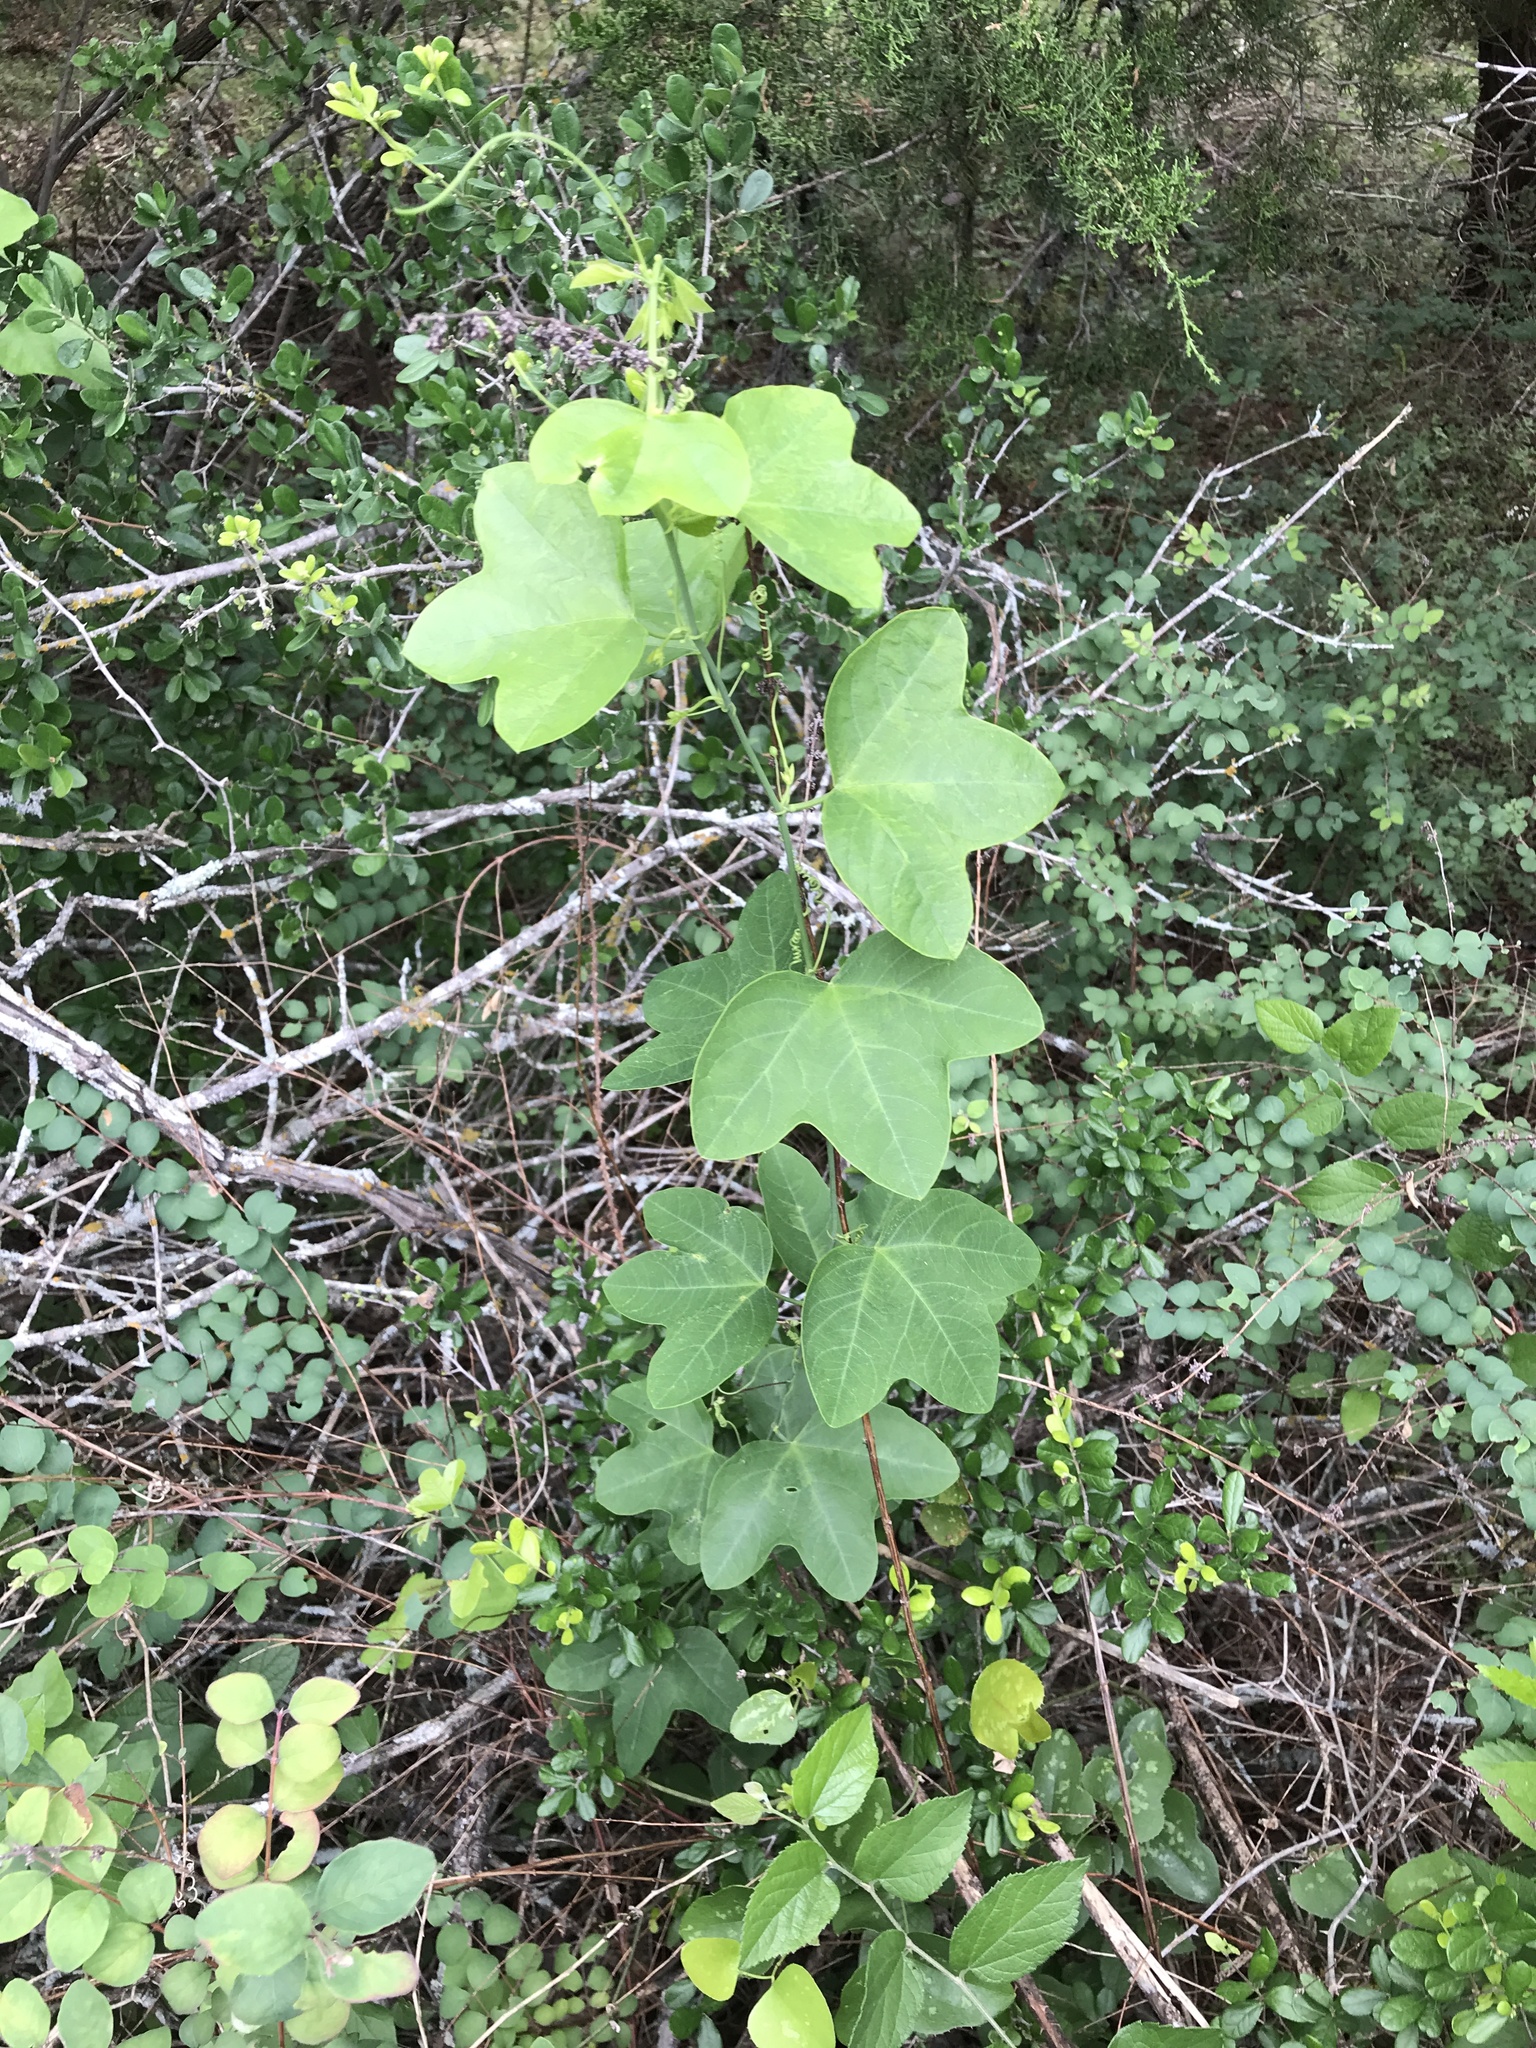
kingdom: Plantae
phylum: Tracheophyta
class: Magnoliopsida
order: Malpighiales
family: Passifloraceae
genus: Passiflora
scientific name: Passiflora lutea
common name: Yellow passionflower
